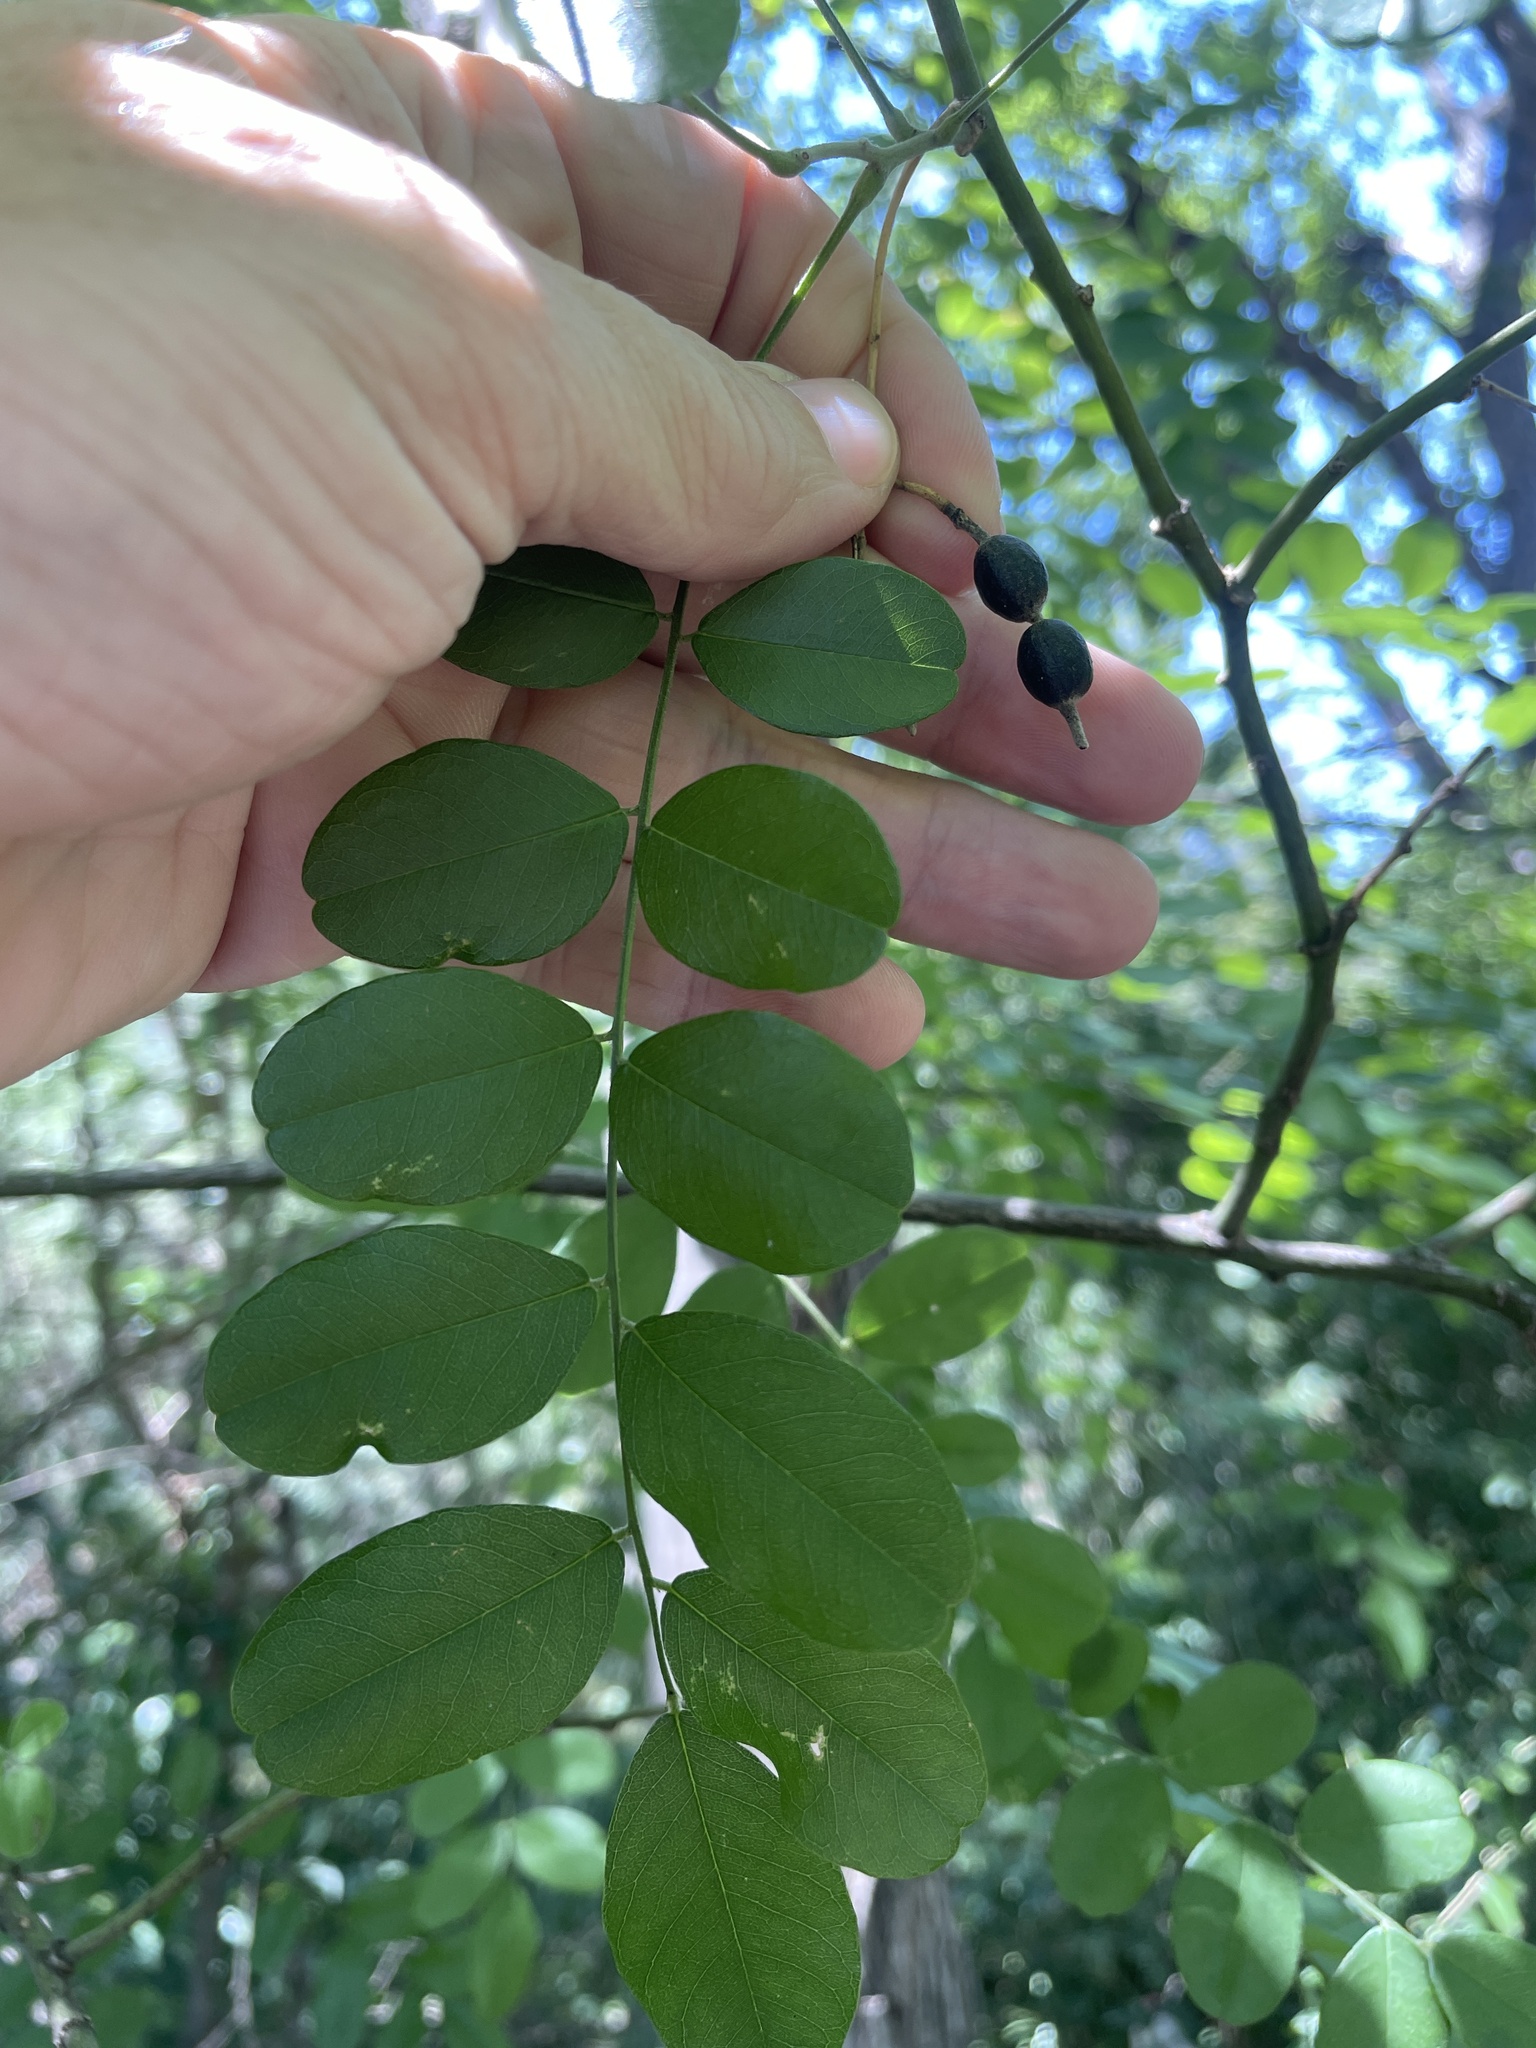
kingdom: Plantae
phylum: Tracheophyta
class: Magnoliopsida
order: Fabales
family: Fabaceae
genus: Styphnolobium
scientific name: Styphnolobium affine
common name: Texas sophora
